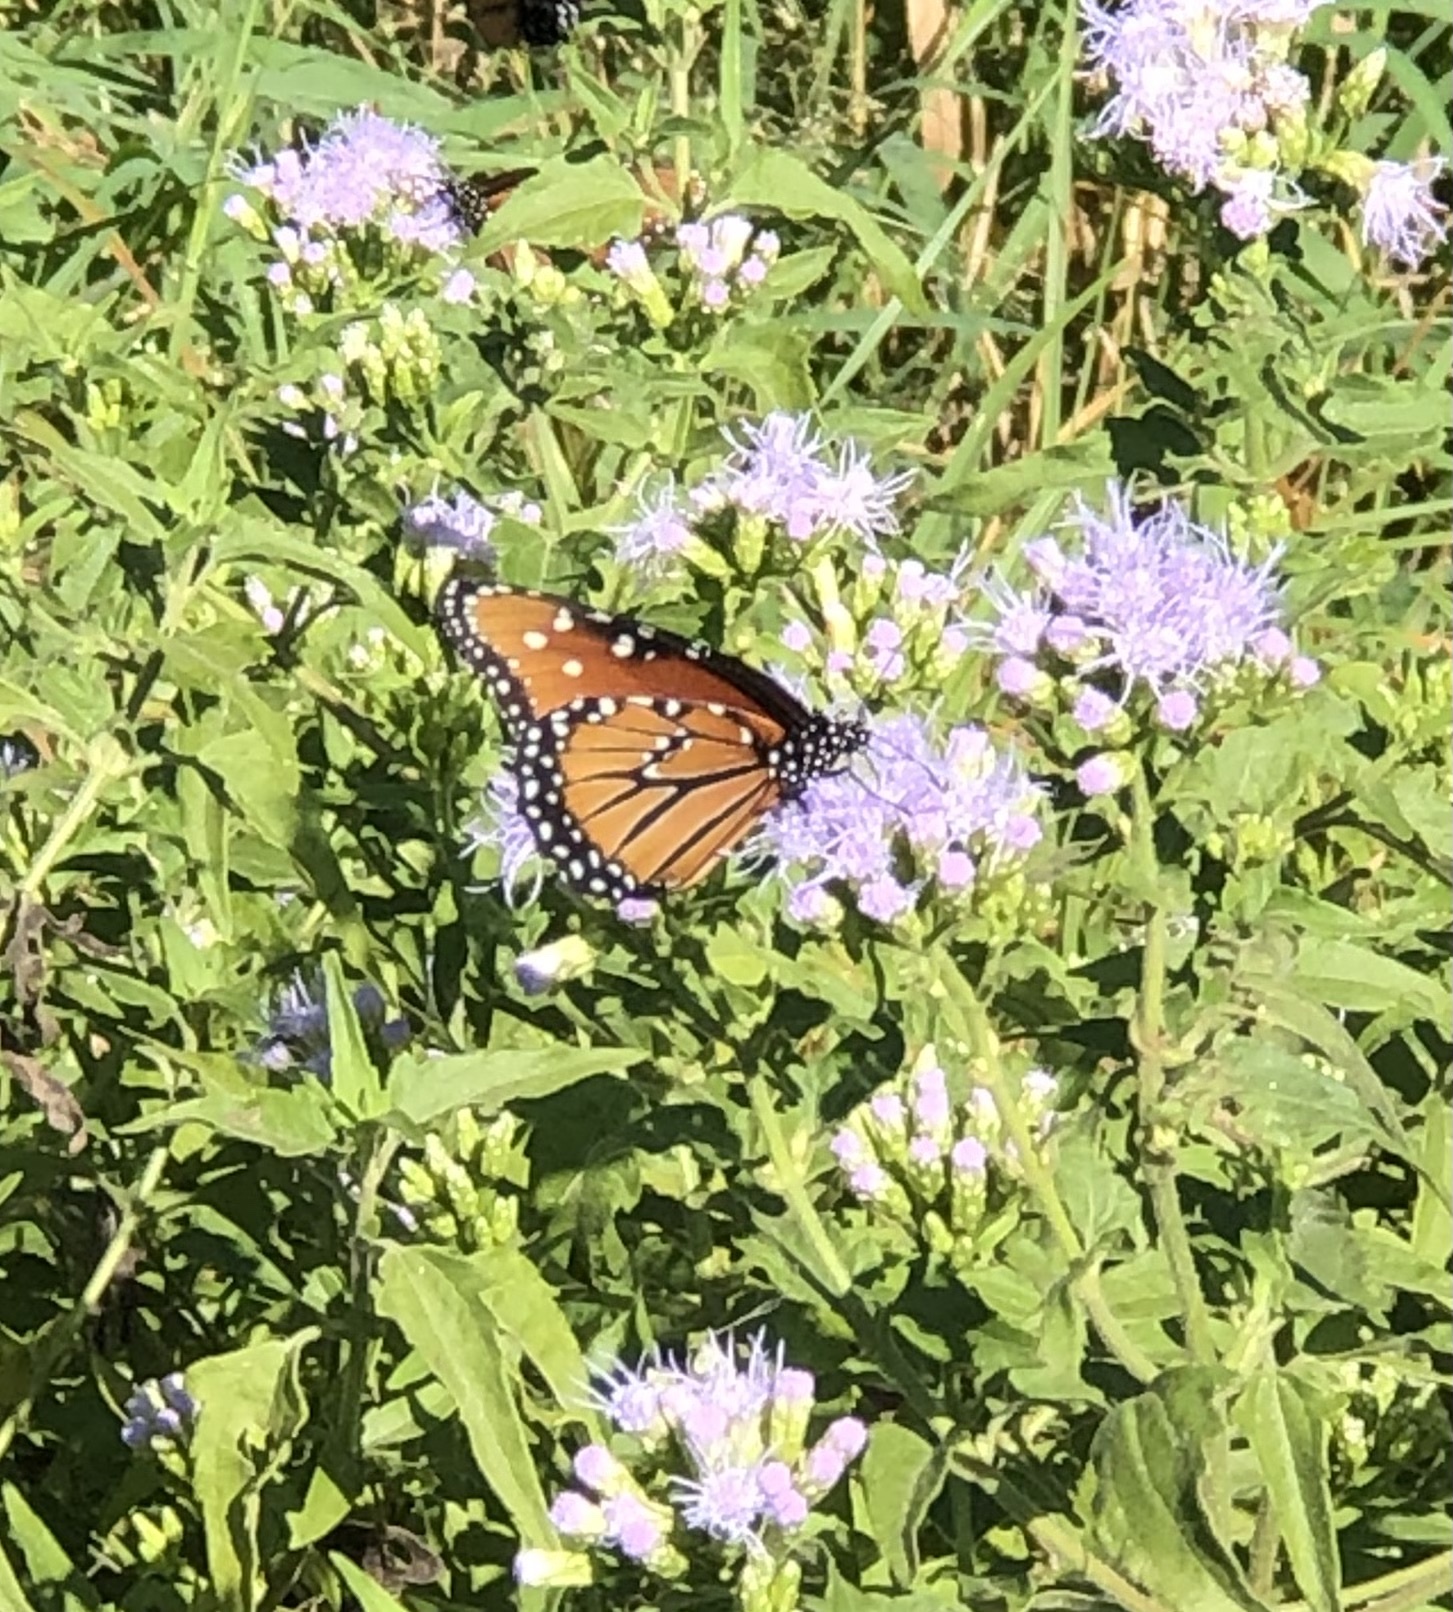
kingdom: Animalia
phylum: Arthropoda
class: Insecta
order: Lepidoptera
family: Nymphalidae
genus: Danaus
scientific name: Danaus gilippus
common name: Queen
